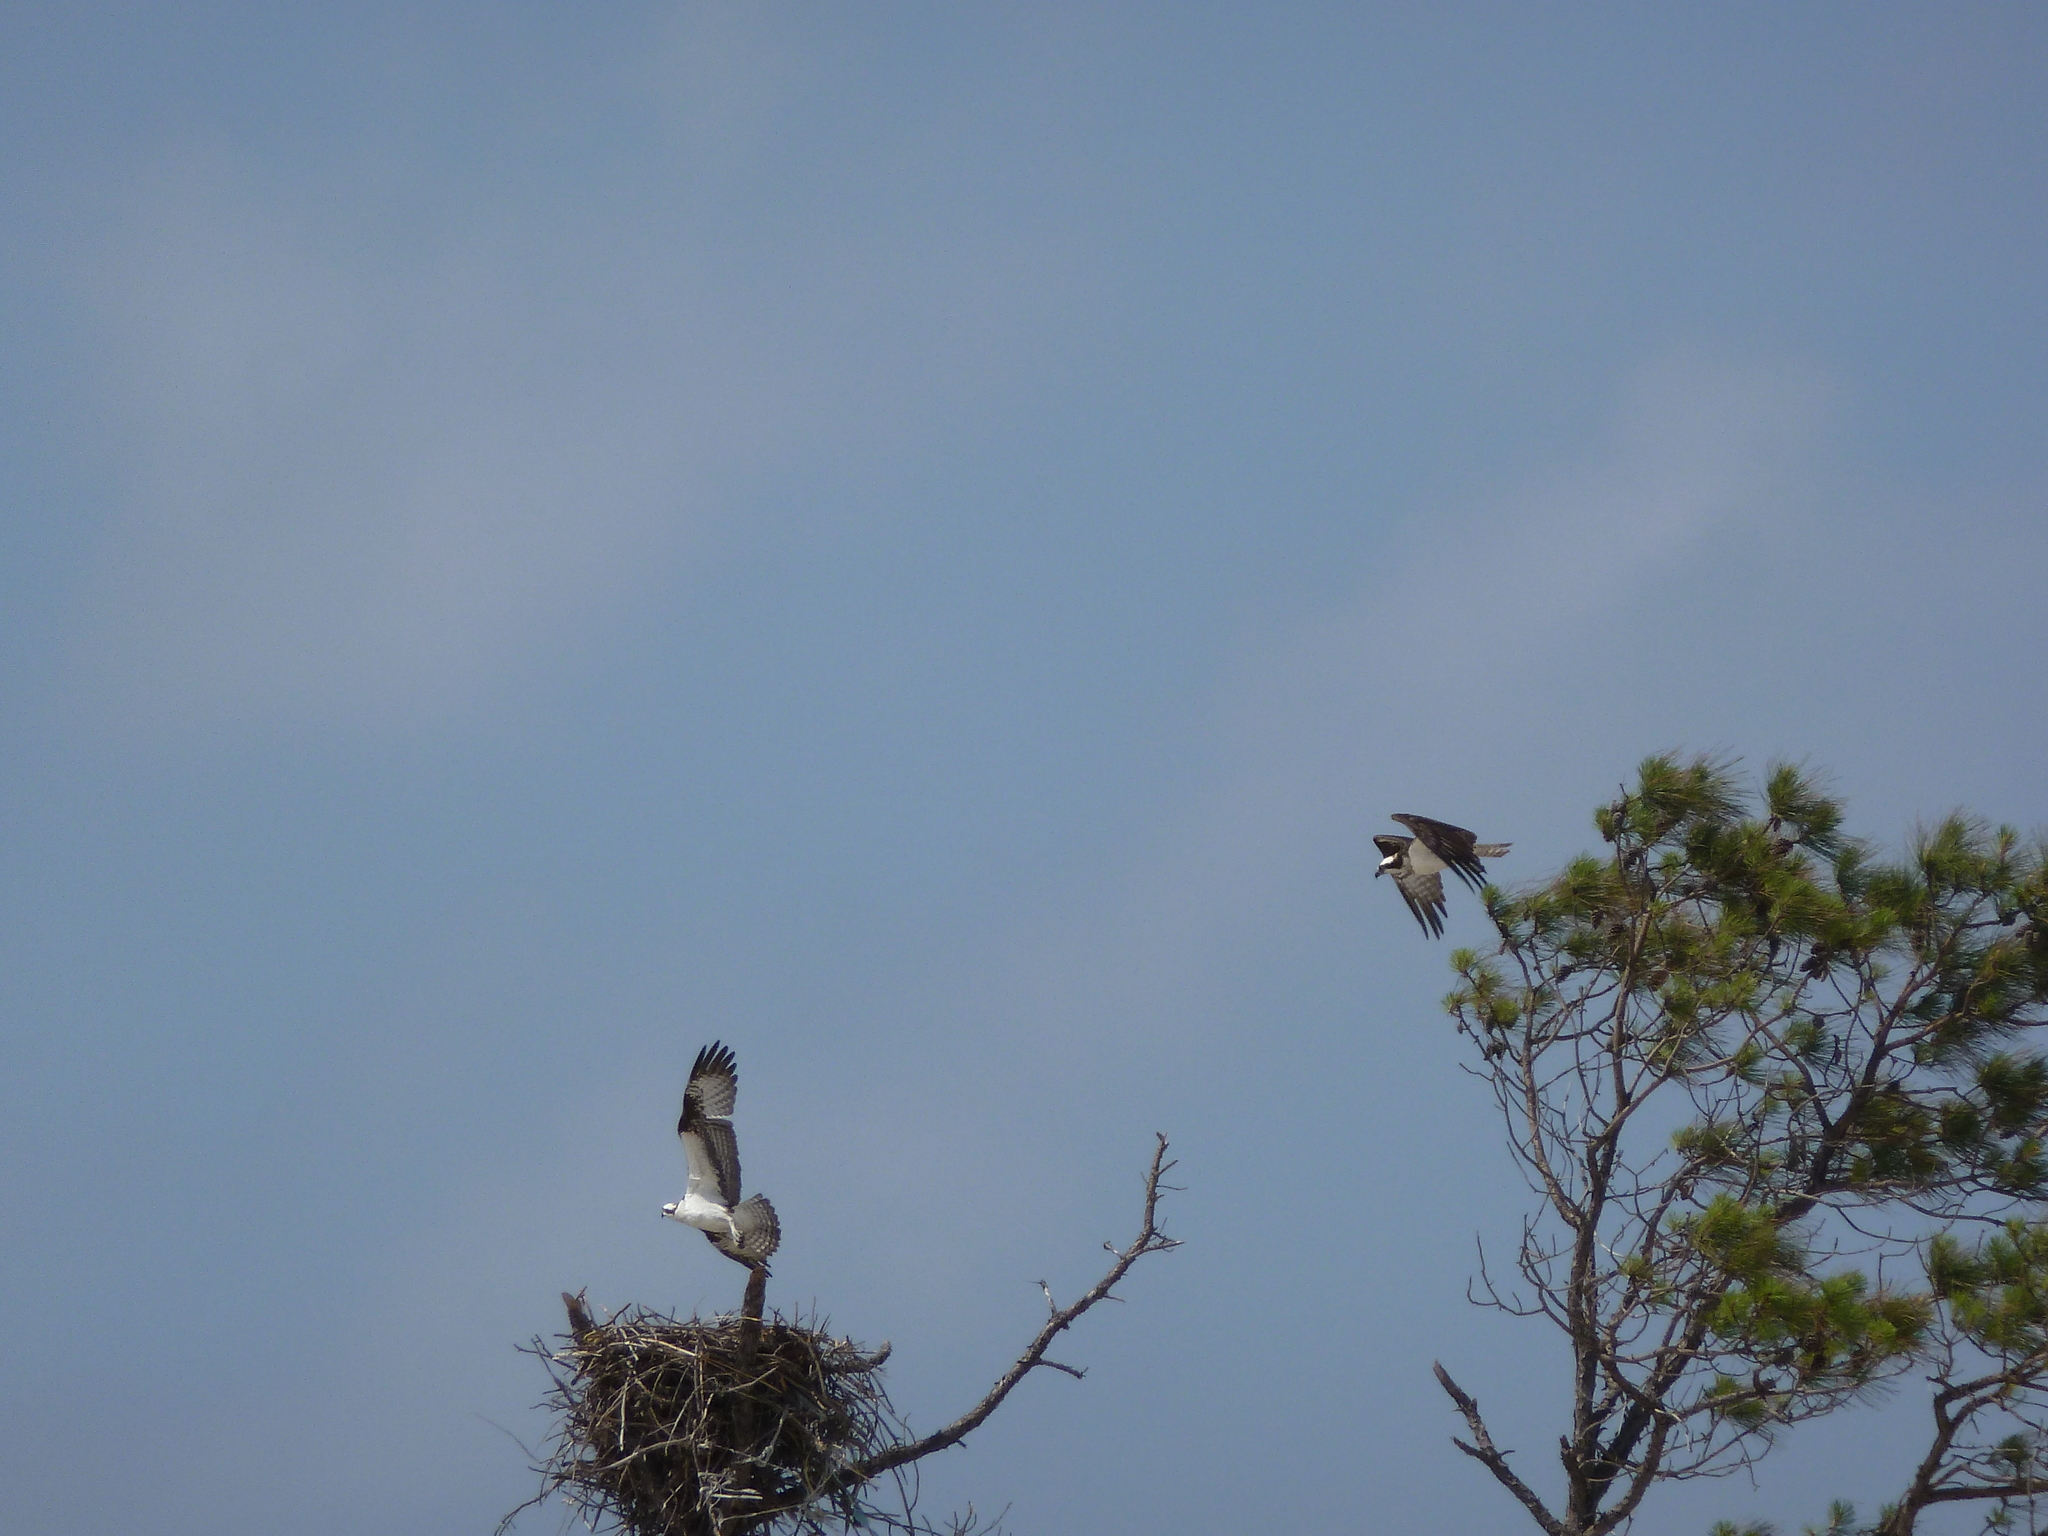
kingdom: Animalia
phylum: Chordata
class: Aves
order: Accipitriformes
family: Pandionidae
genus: Pandion
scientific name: Pandion haliaetus
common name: Osprey
